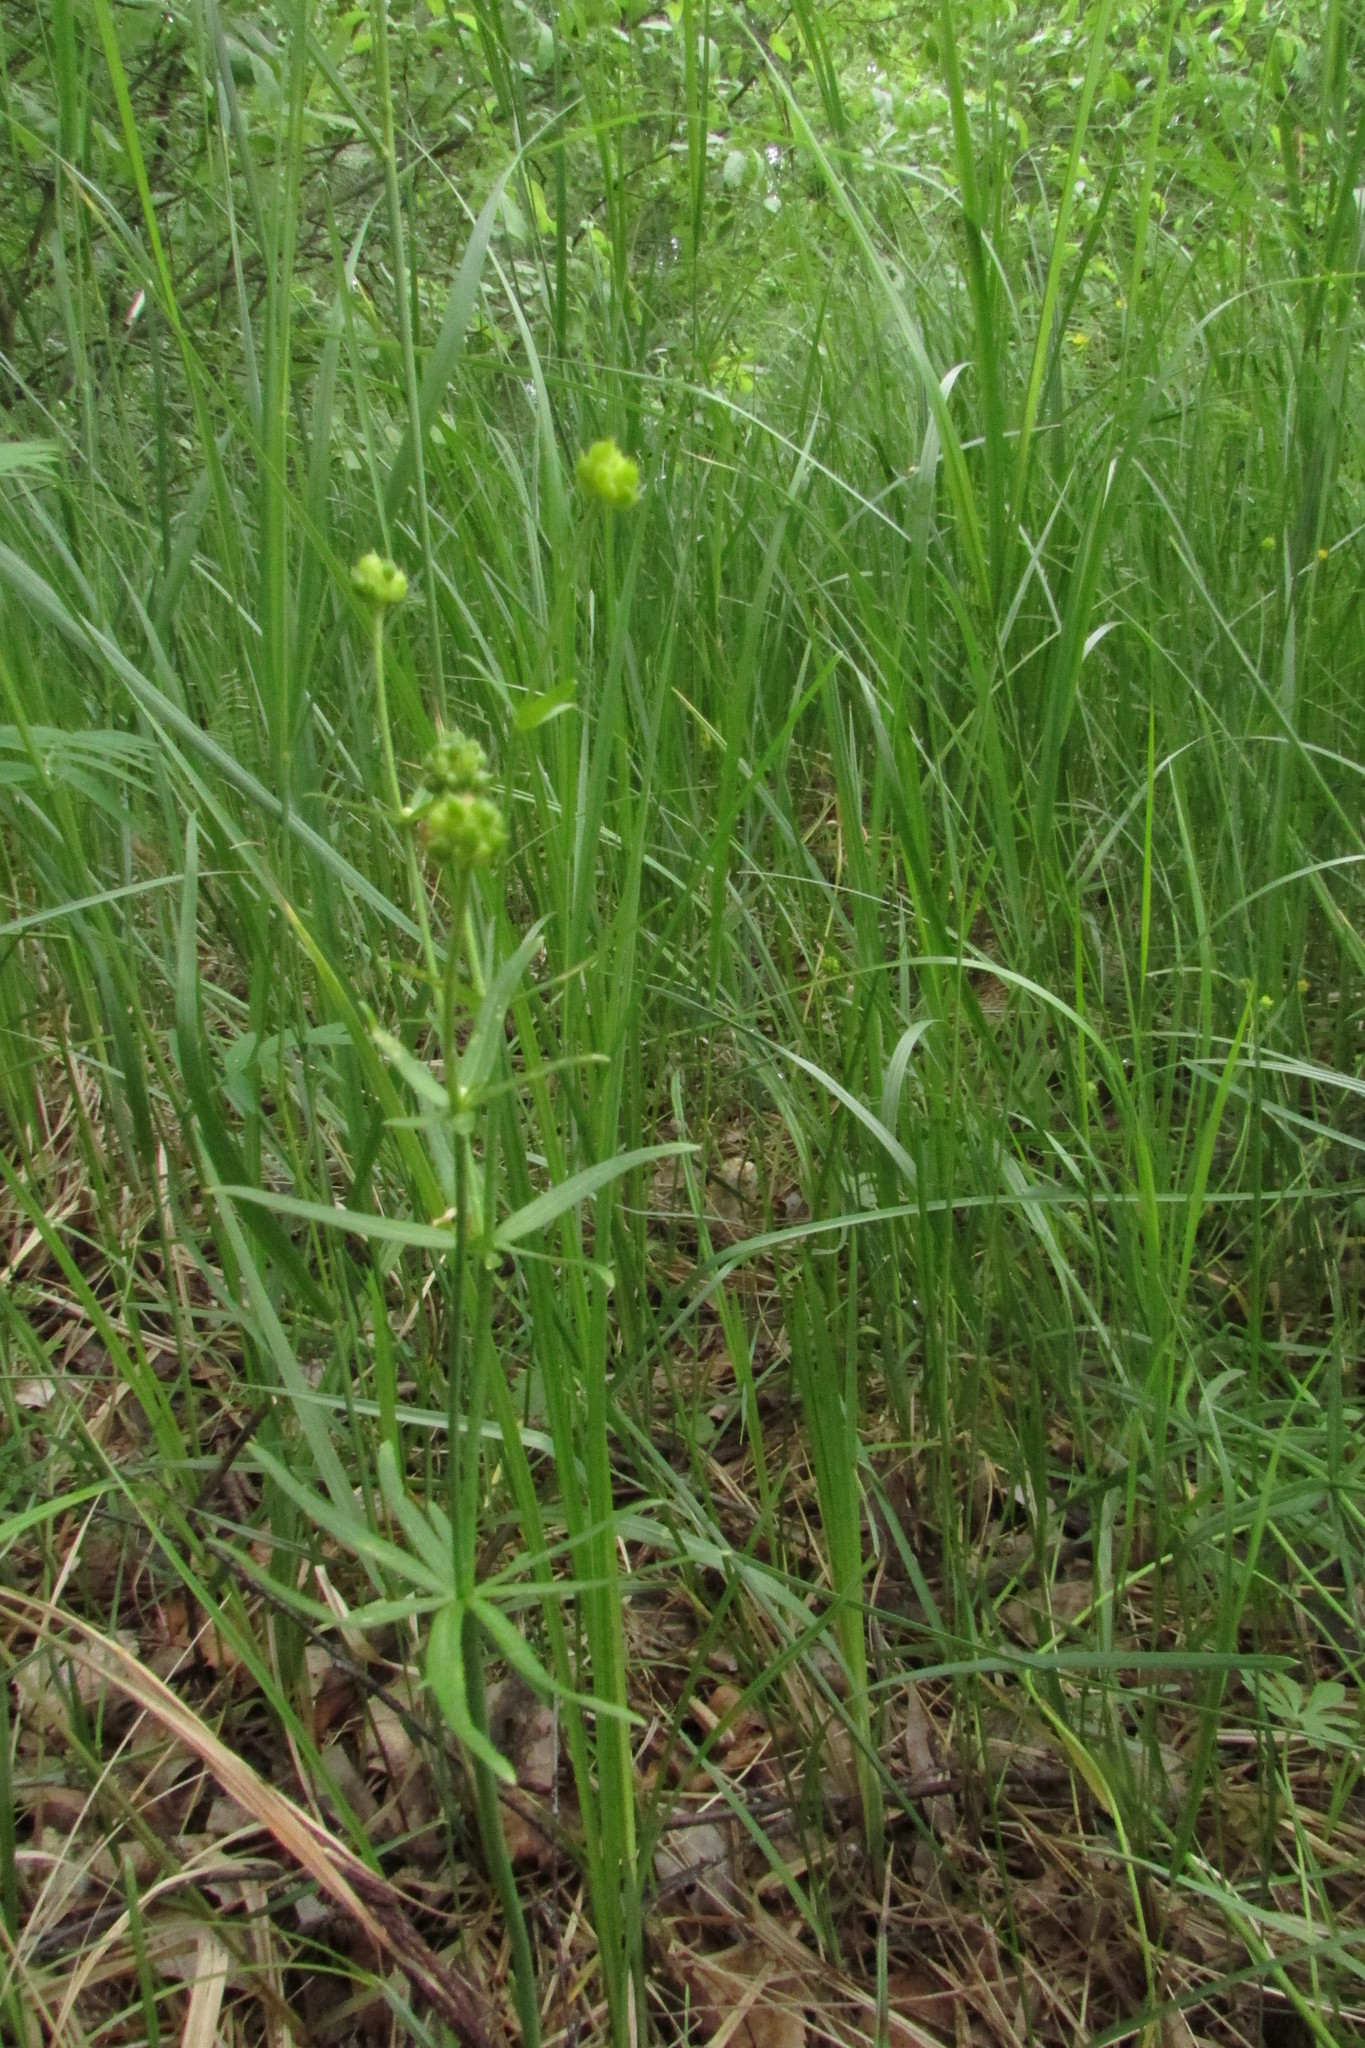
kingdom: Plantae
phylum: Tracheophyta
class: Magnoliopsida
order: Ranunculales
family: Ranunculaceae
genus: Ranunculus
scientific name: Ranunculus auricomus
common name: Goldilocks buttercup
